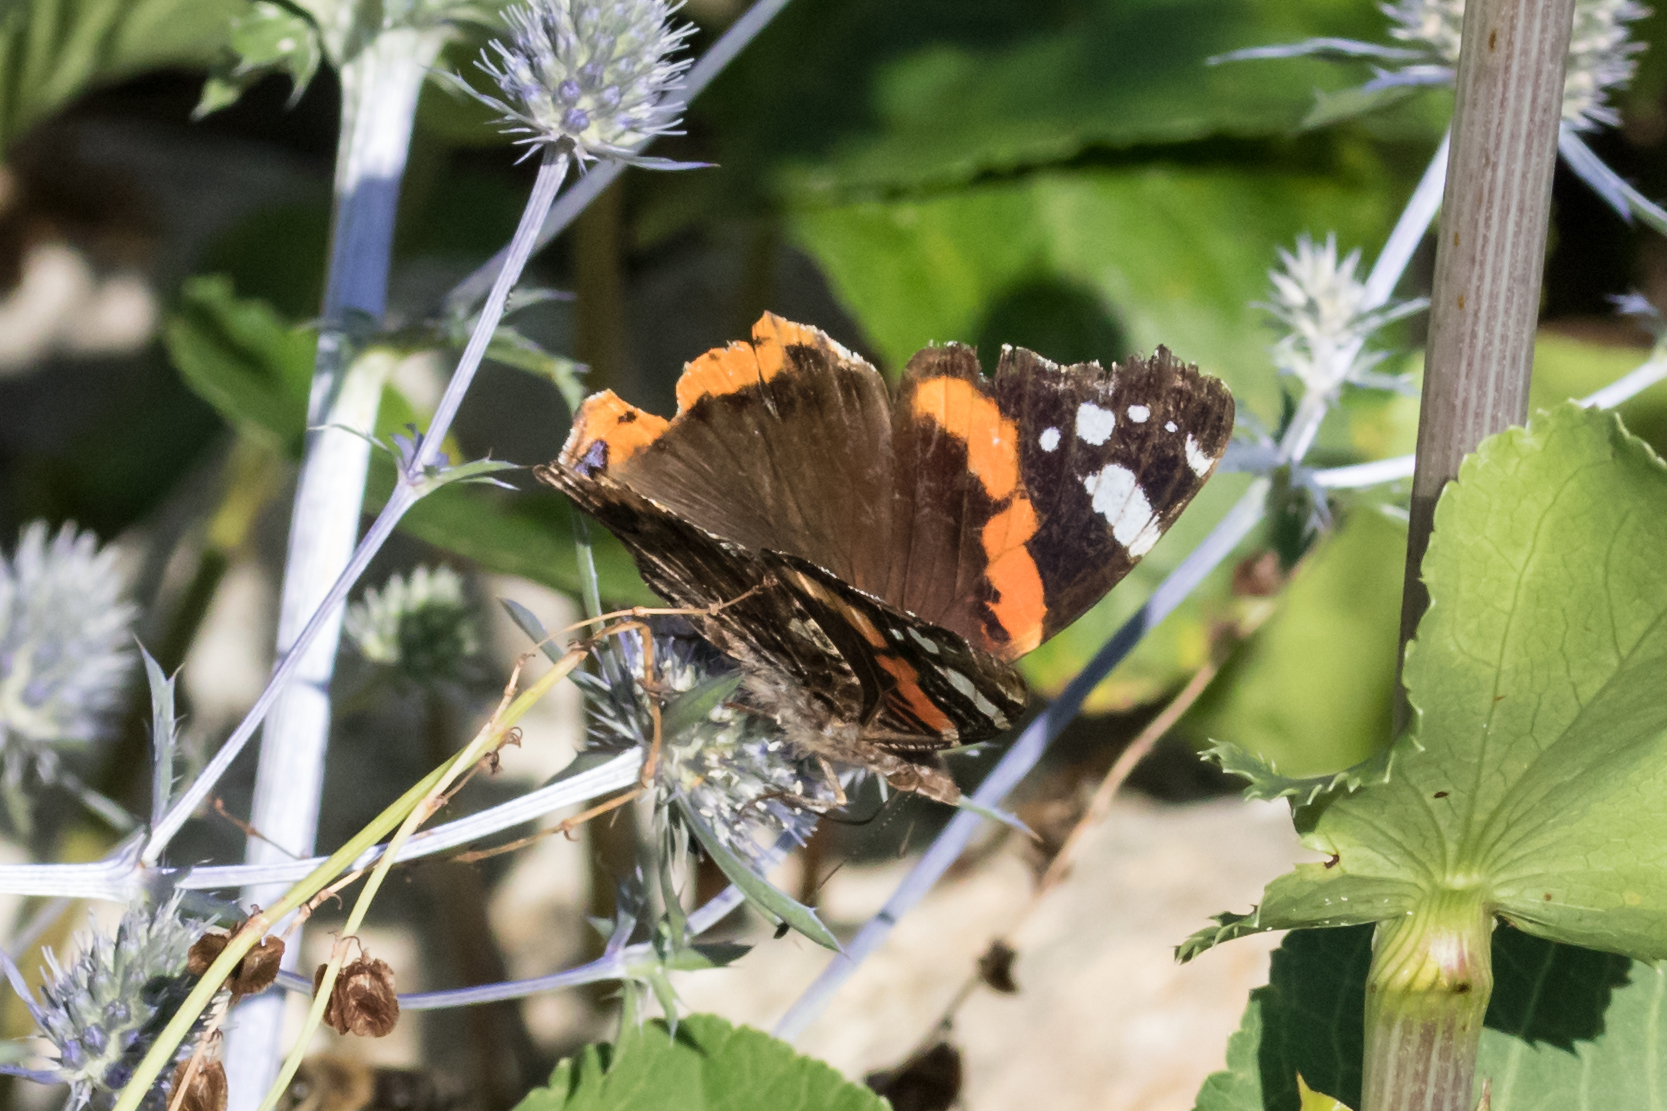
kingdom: Animalia
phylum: Arthropoda
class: Insecta
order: Lepidoptera
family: Nymphalidae
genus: Vanessa
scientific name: Vanessa atalanta
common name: Red admiral
